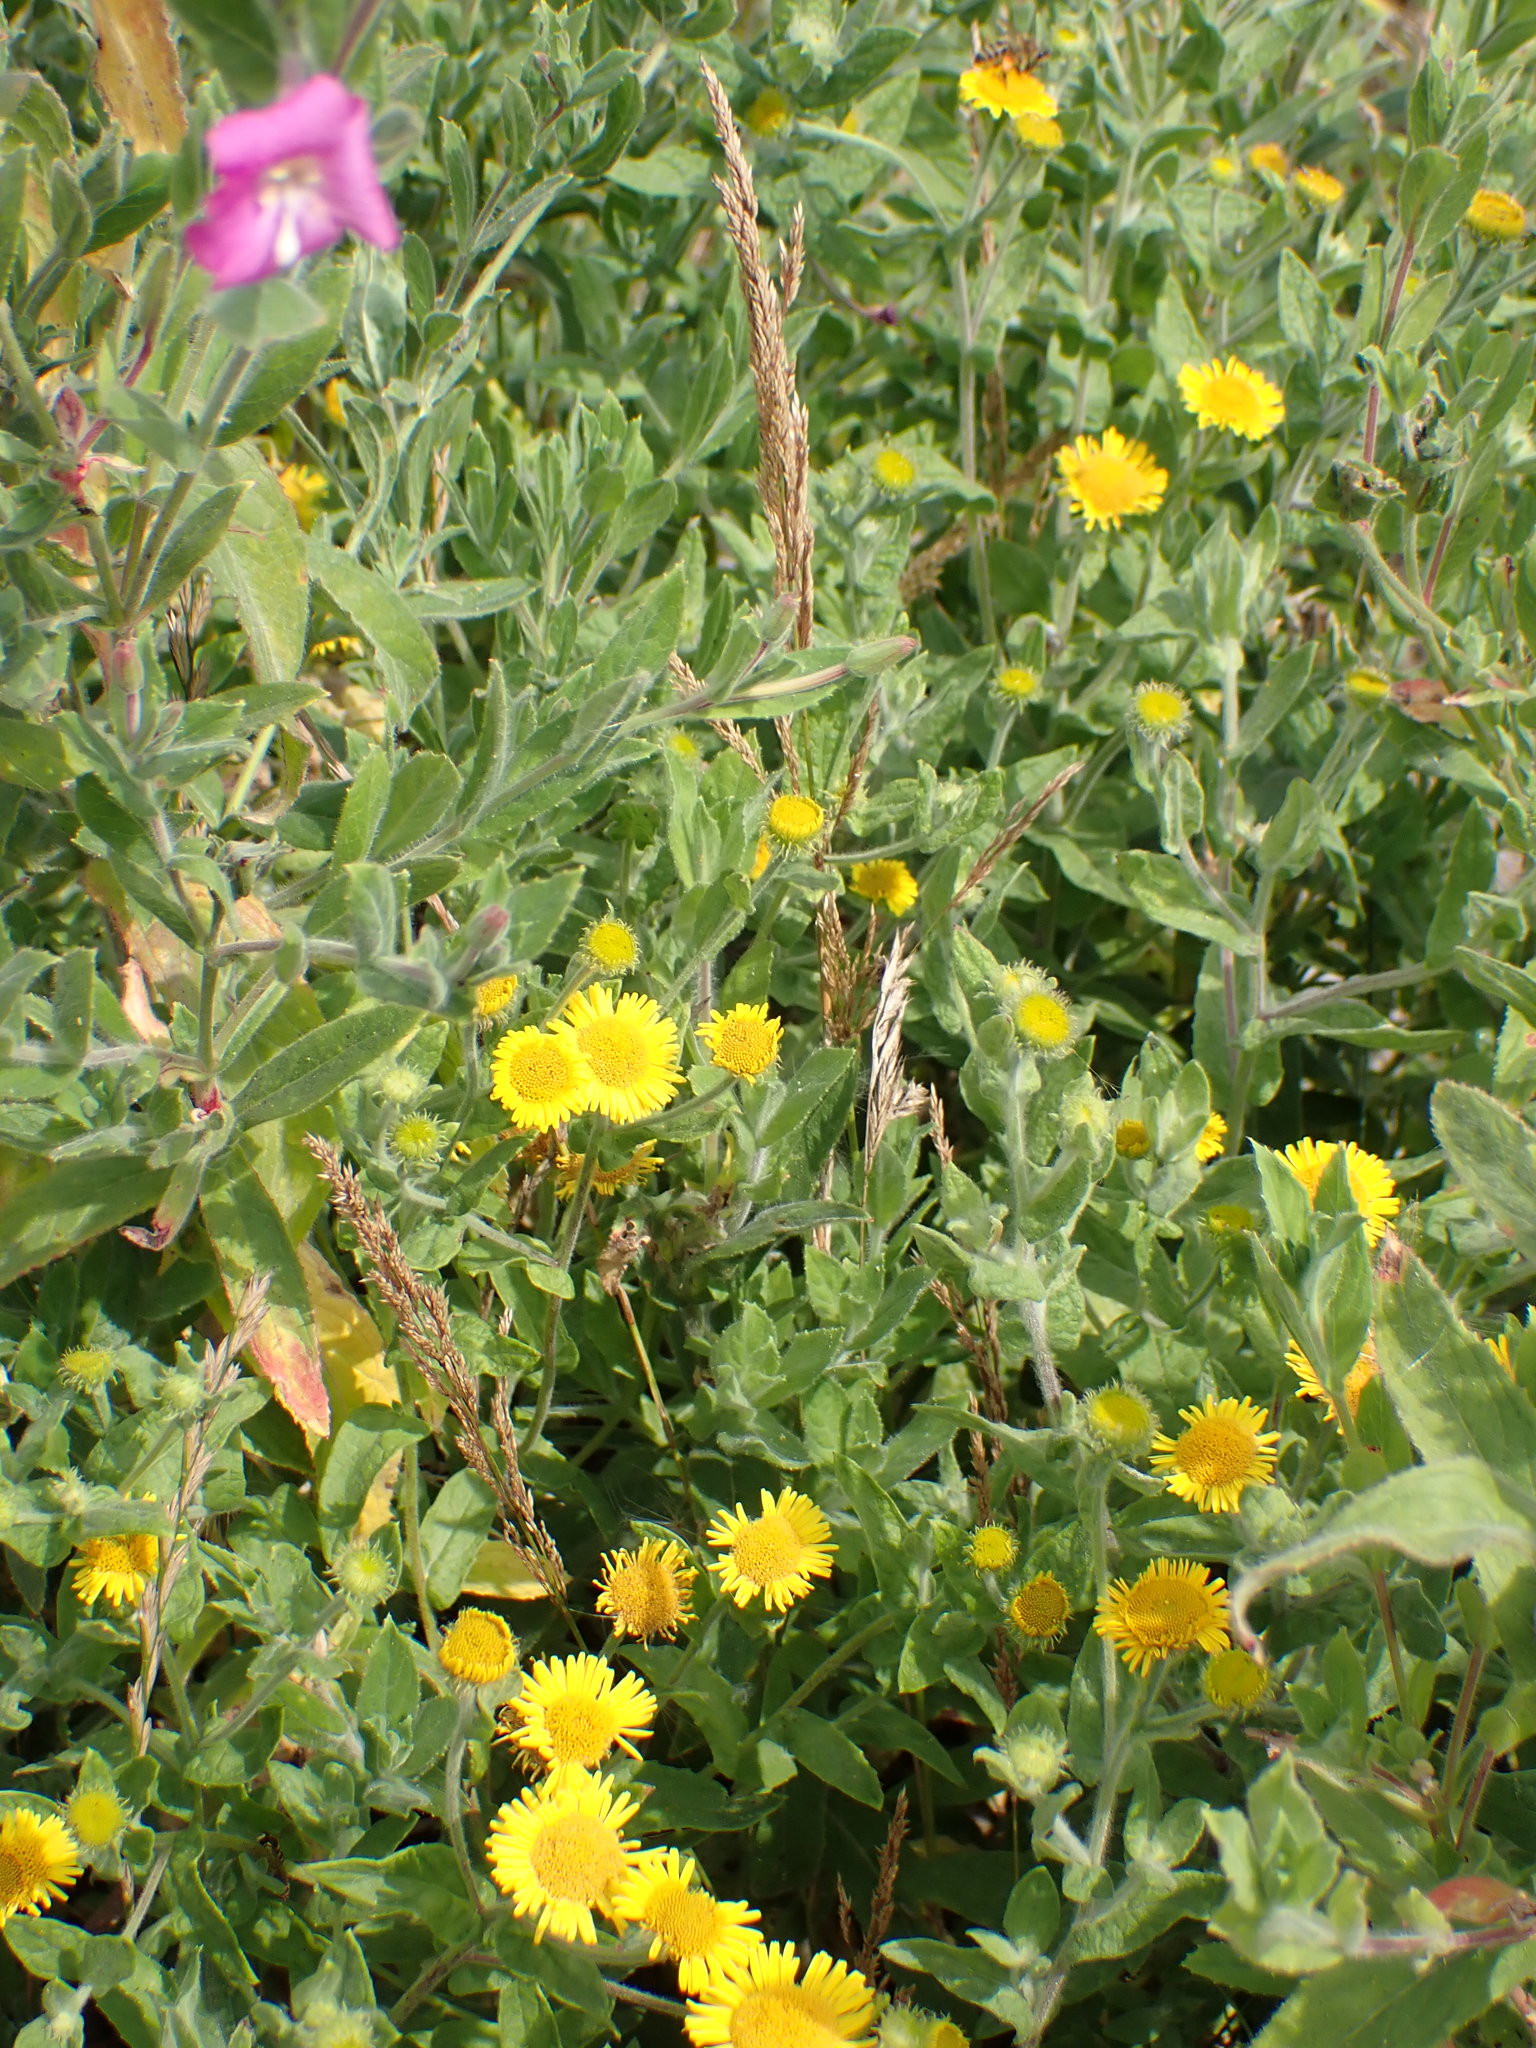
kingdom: Plantae
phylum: Tracheophyta
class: Magnoliopsida
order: Asterales
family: Asteraceae
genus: Pulicaria
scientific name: Pulicaria dysenterica
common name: Common fleabane
